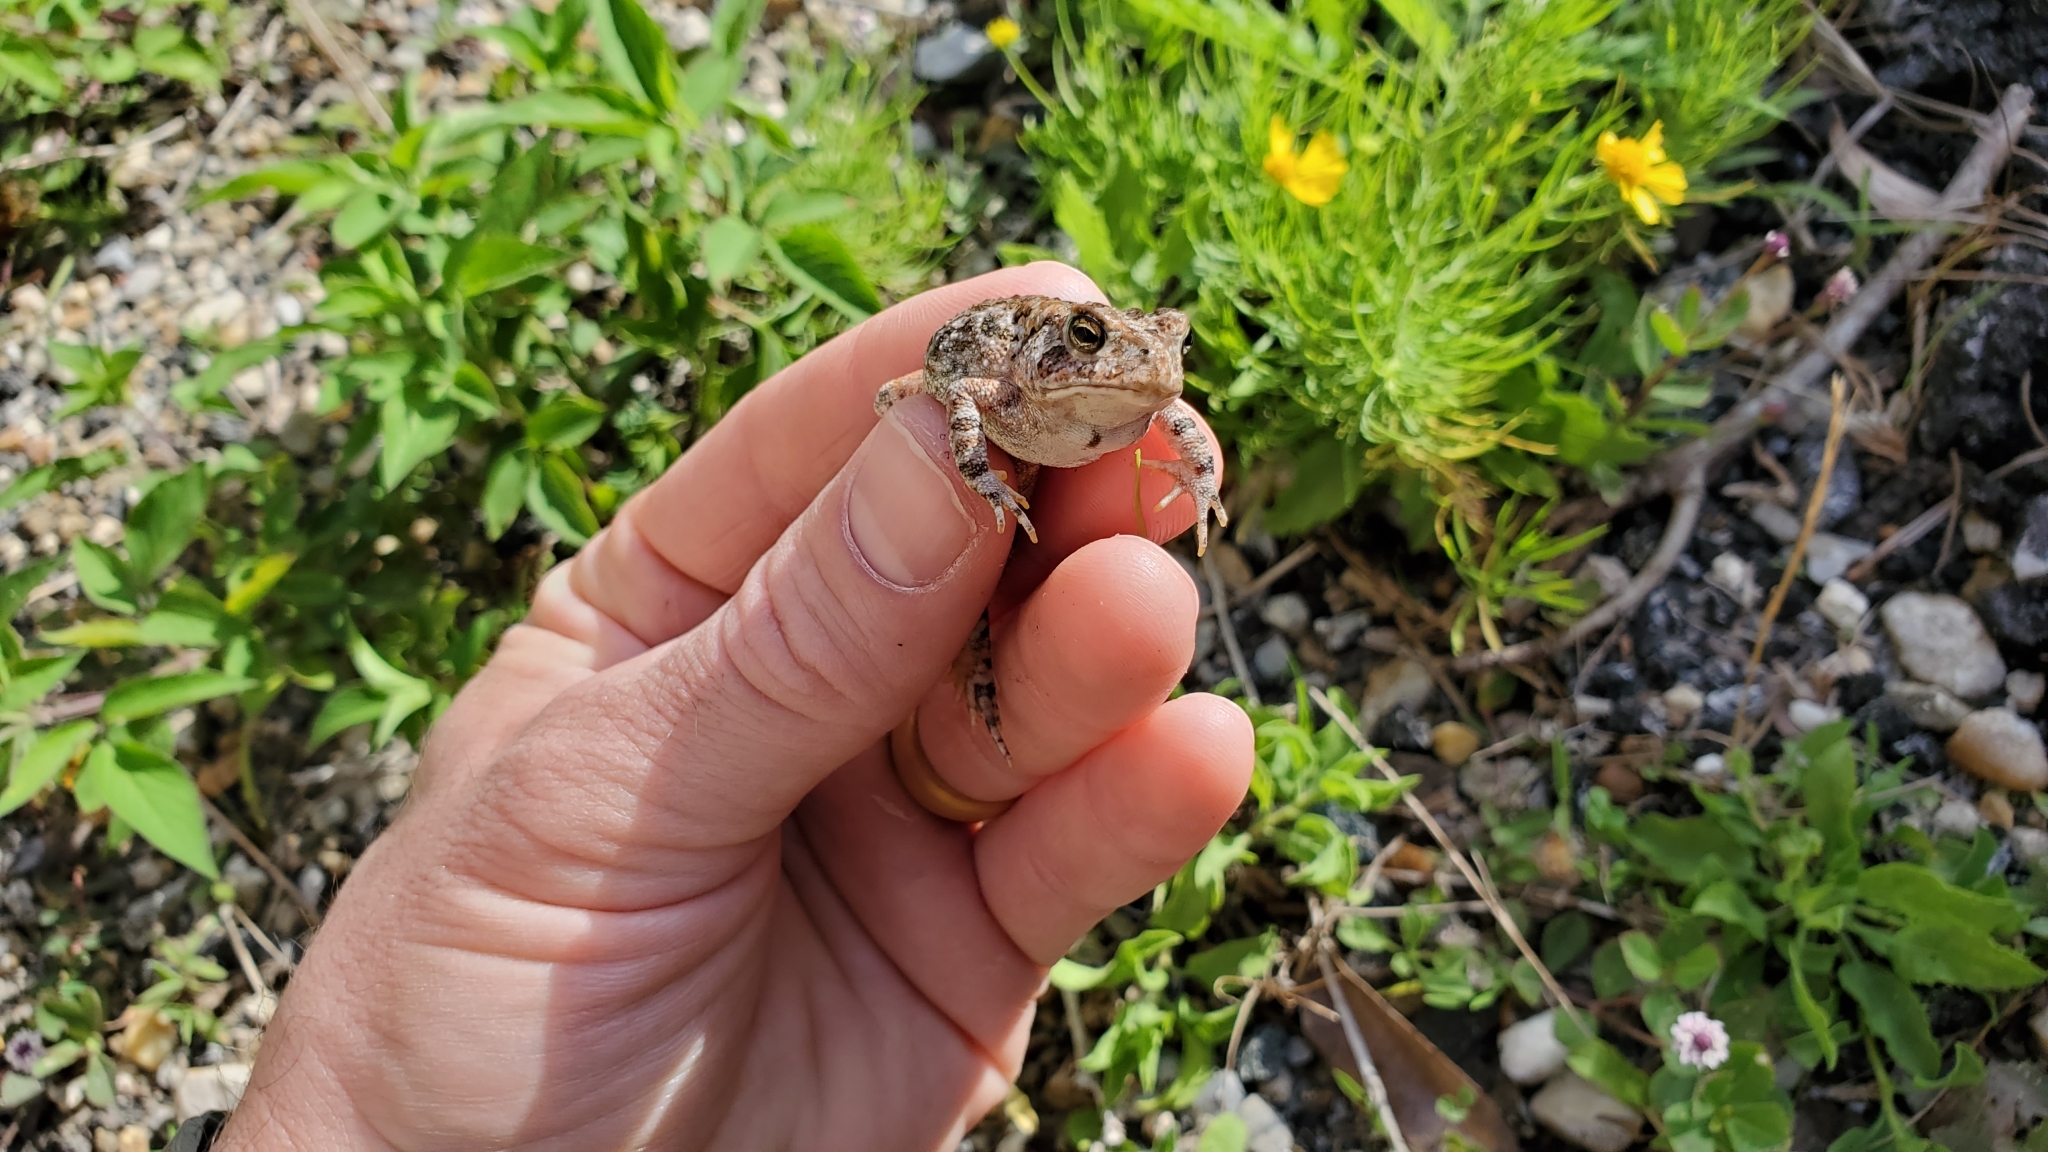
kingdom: Animalia
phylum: Chordata
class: Amphibia
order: Anura
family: Bufonidae
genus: Anaxyrus
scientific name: Anaxyrus terrestris
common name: Southern toad
